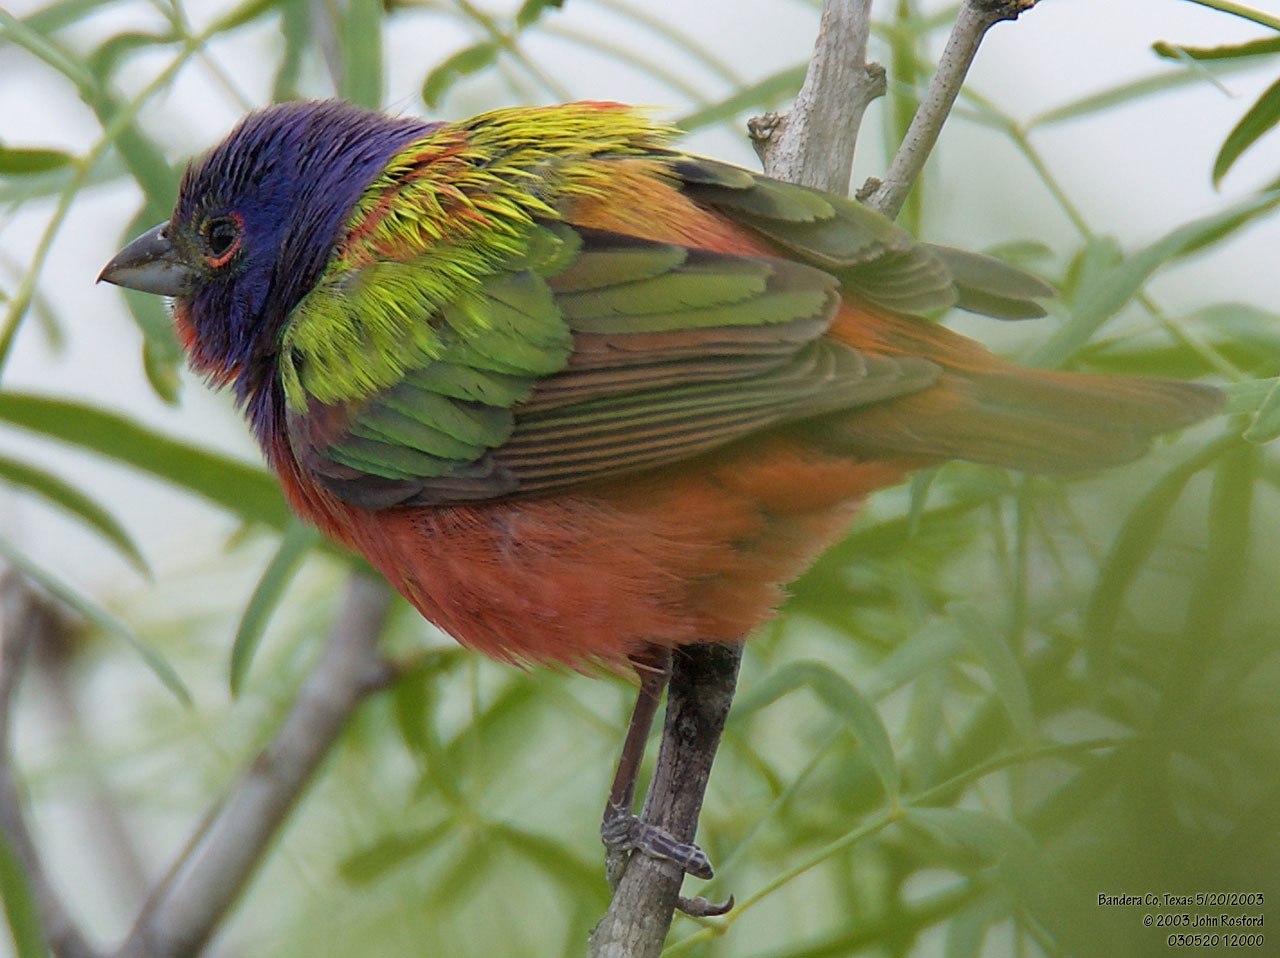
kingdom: Animalia
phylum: Chordata
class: Aves
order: Passeriformes
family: Cardinalidae
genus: Passerina
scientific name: Passerina ciris
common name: Painted bunting
